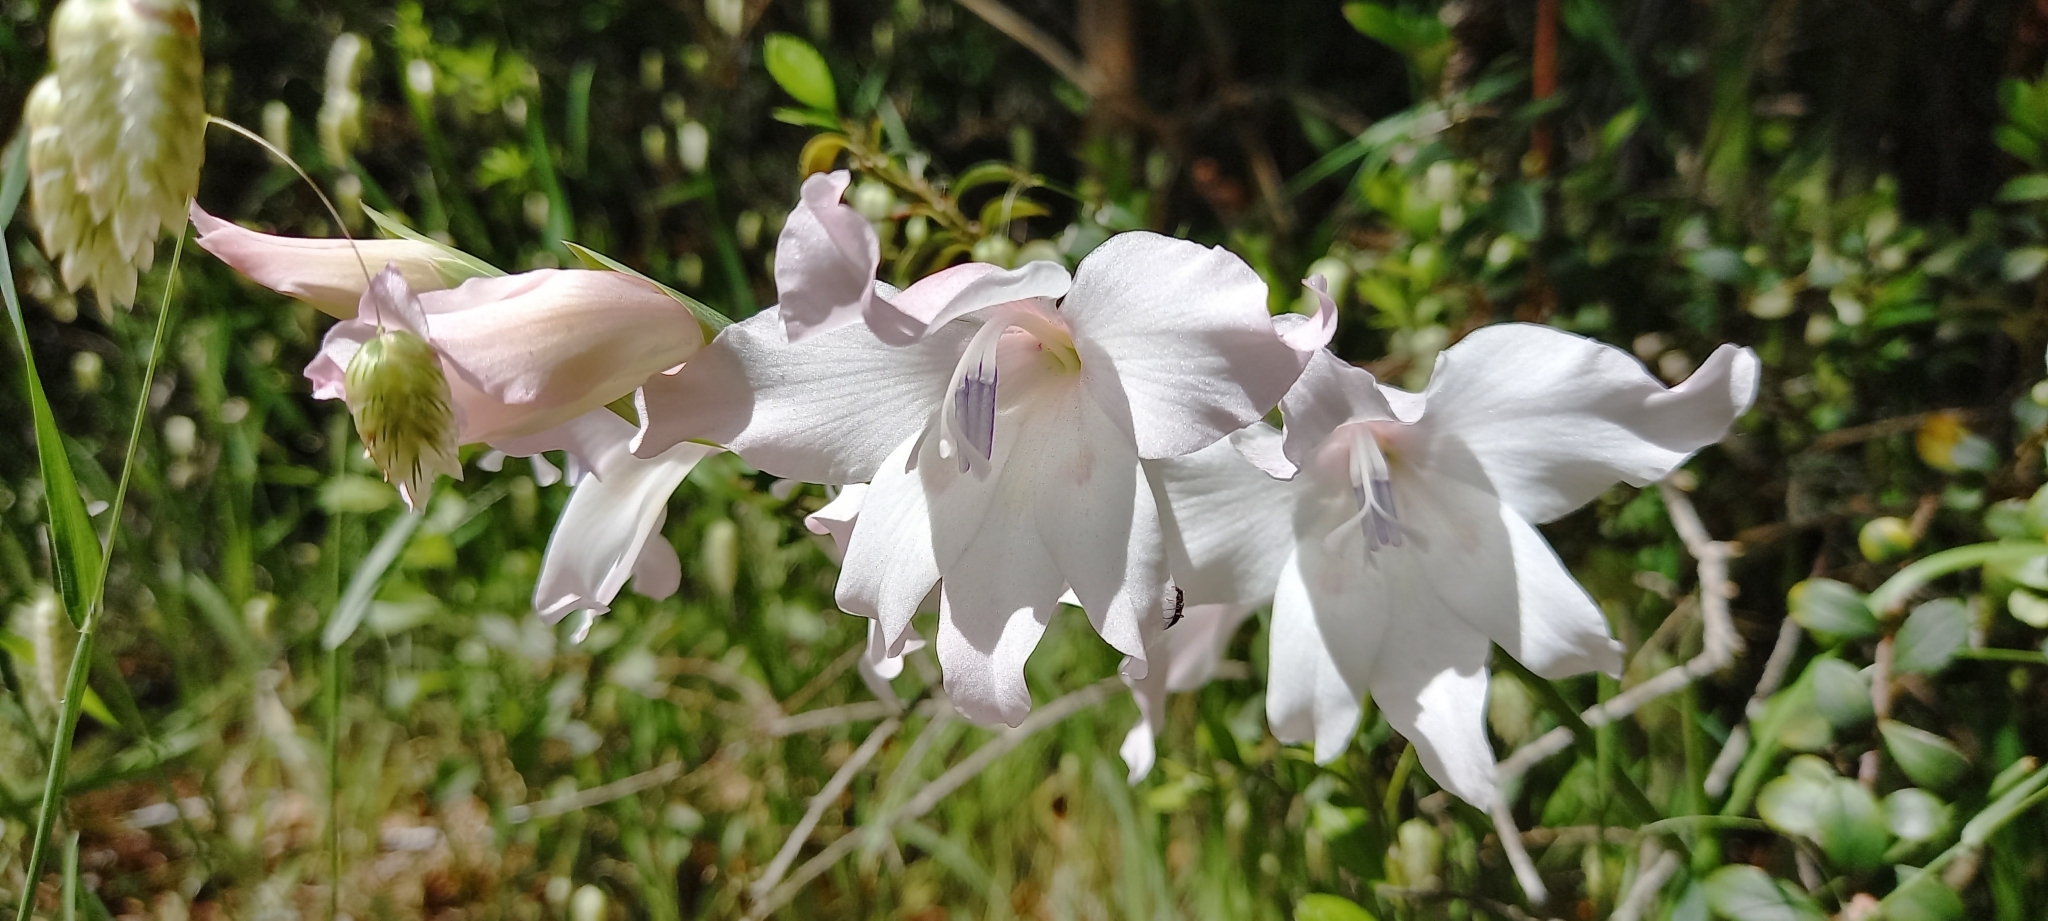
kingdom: Plantae
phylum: Tracheophyta
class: Liliopsida
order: Asparagales
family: Iridaceae
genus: Gladiolus
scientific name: Gladiolus carneus
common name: Painted-lady
